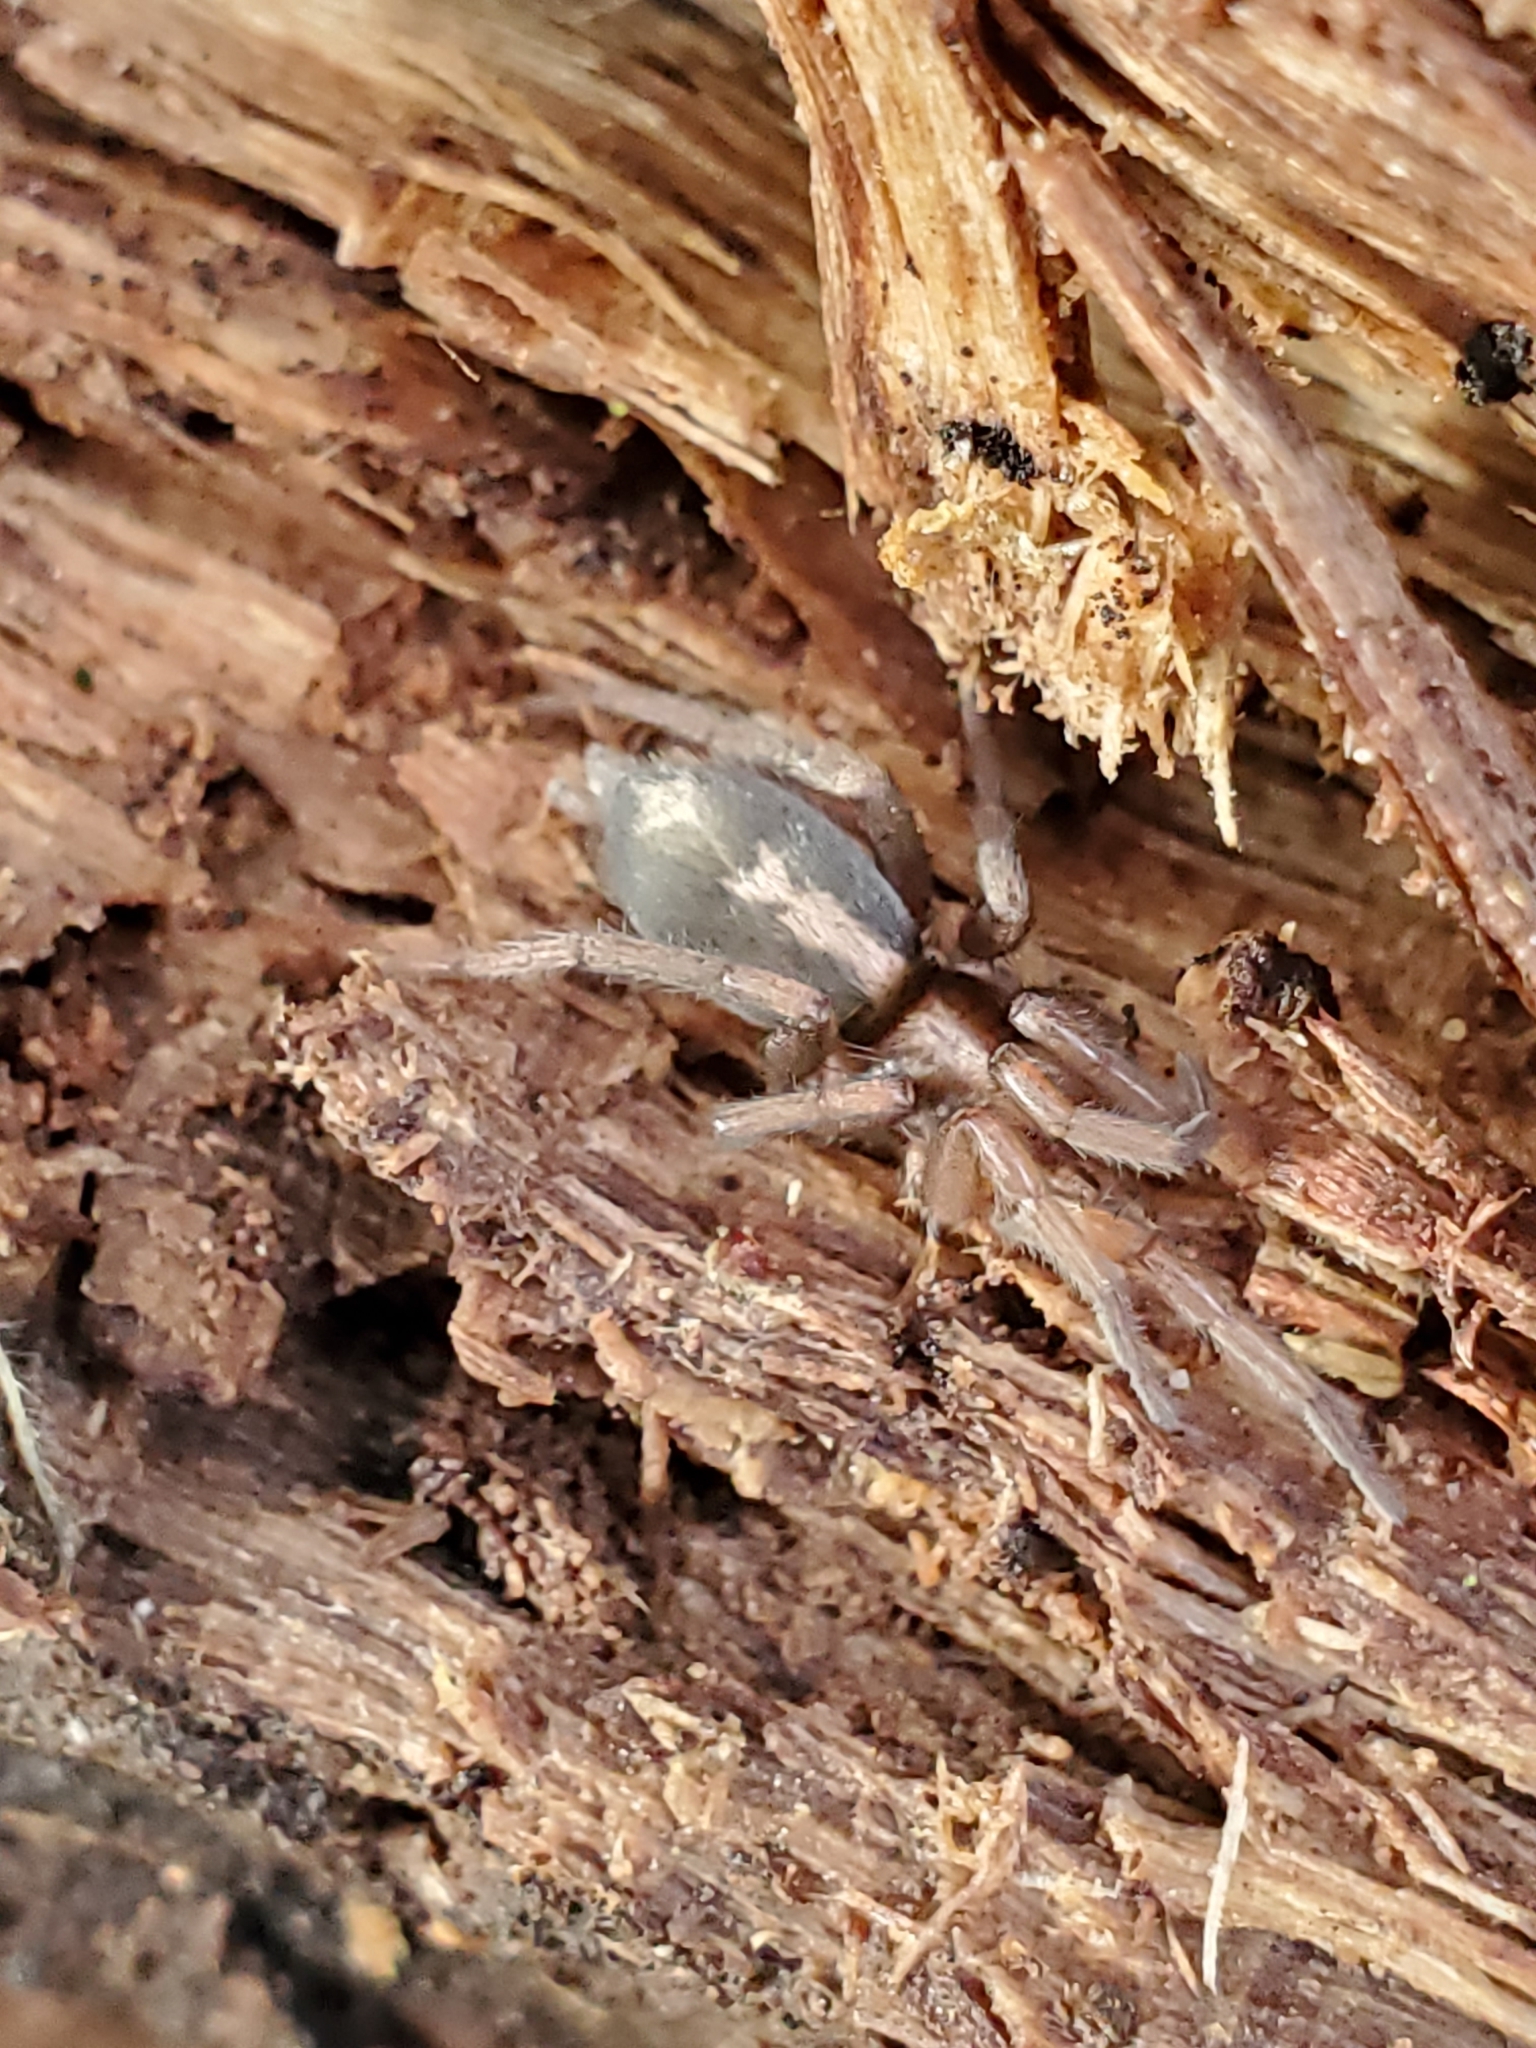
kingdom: Animalia
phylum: Arthropoda
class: Arachnida
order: Araneae
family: Gnaphosidae
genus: Herpyllus
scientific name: Herpyllus propinquus
